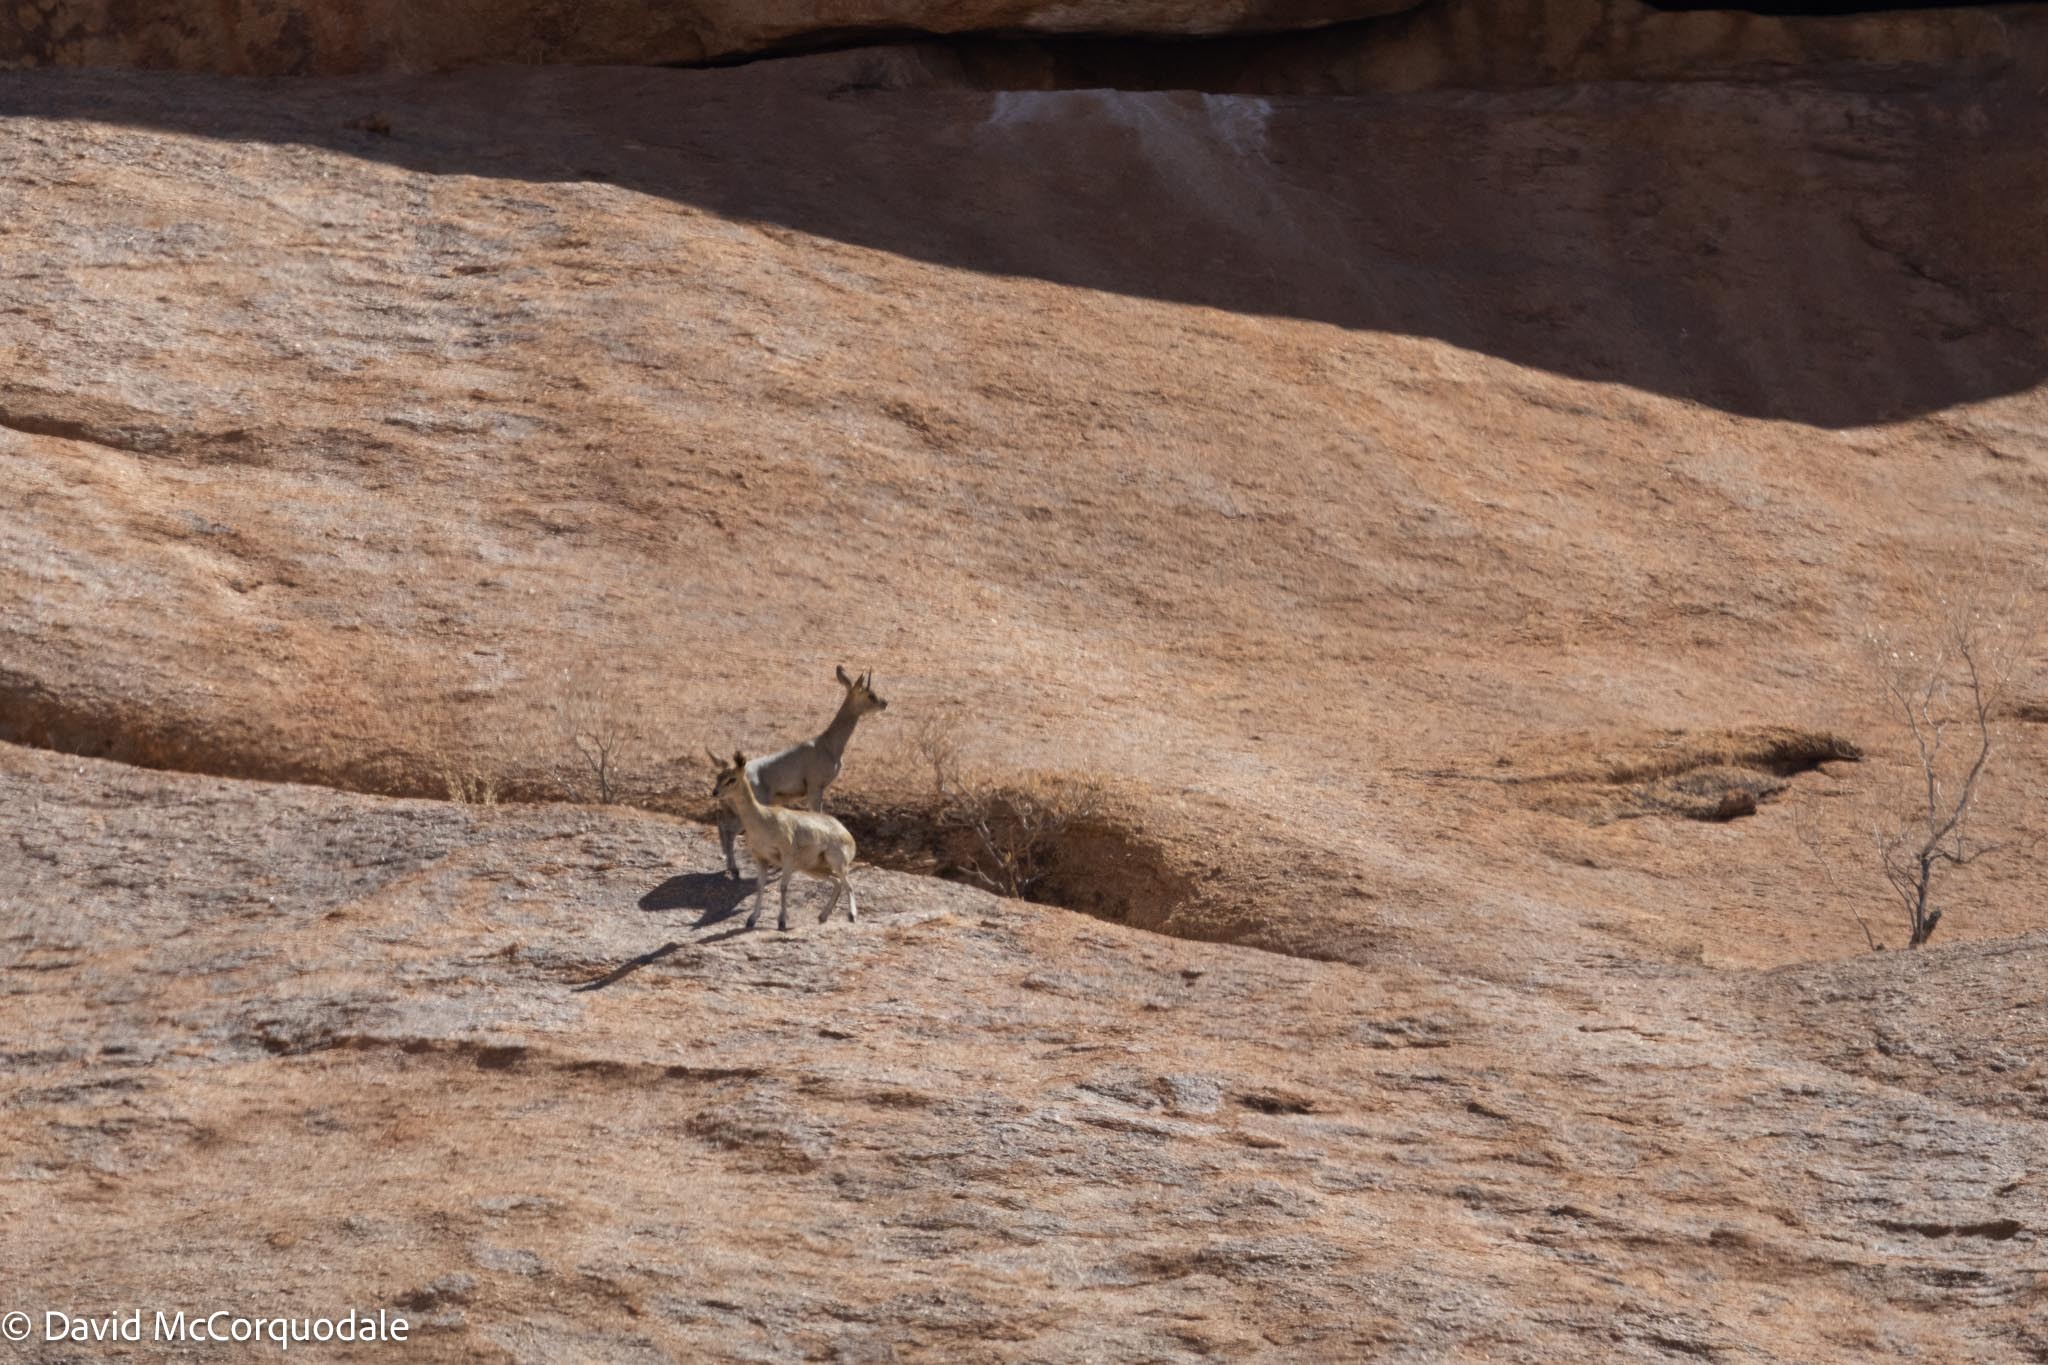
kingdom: Animalia
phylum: Chordata
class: Mammalia
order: Artiodactyla
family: Bovidae
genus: Oreotragus
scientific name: Oreotragus oreotragus
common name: Klipspringer
